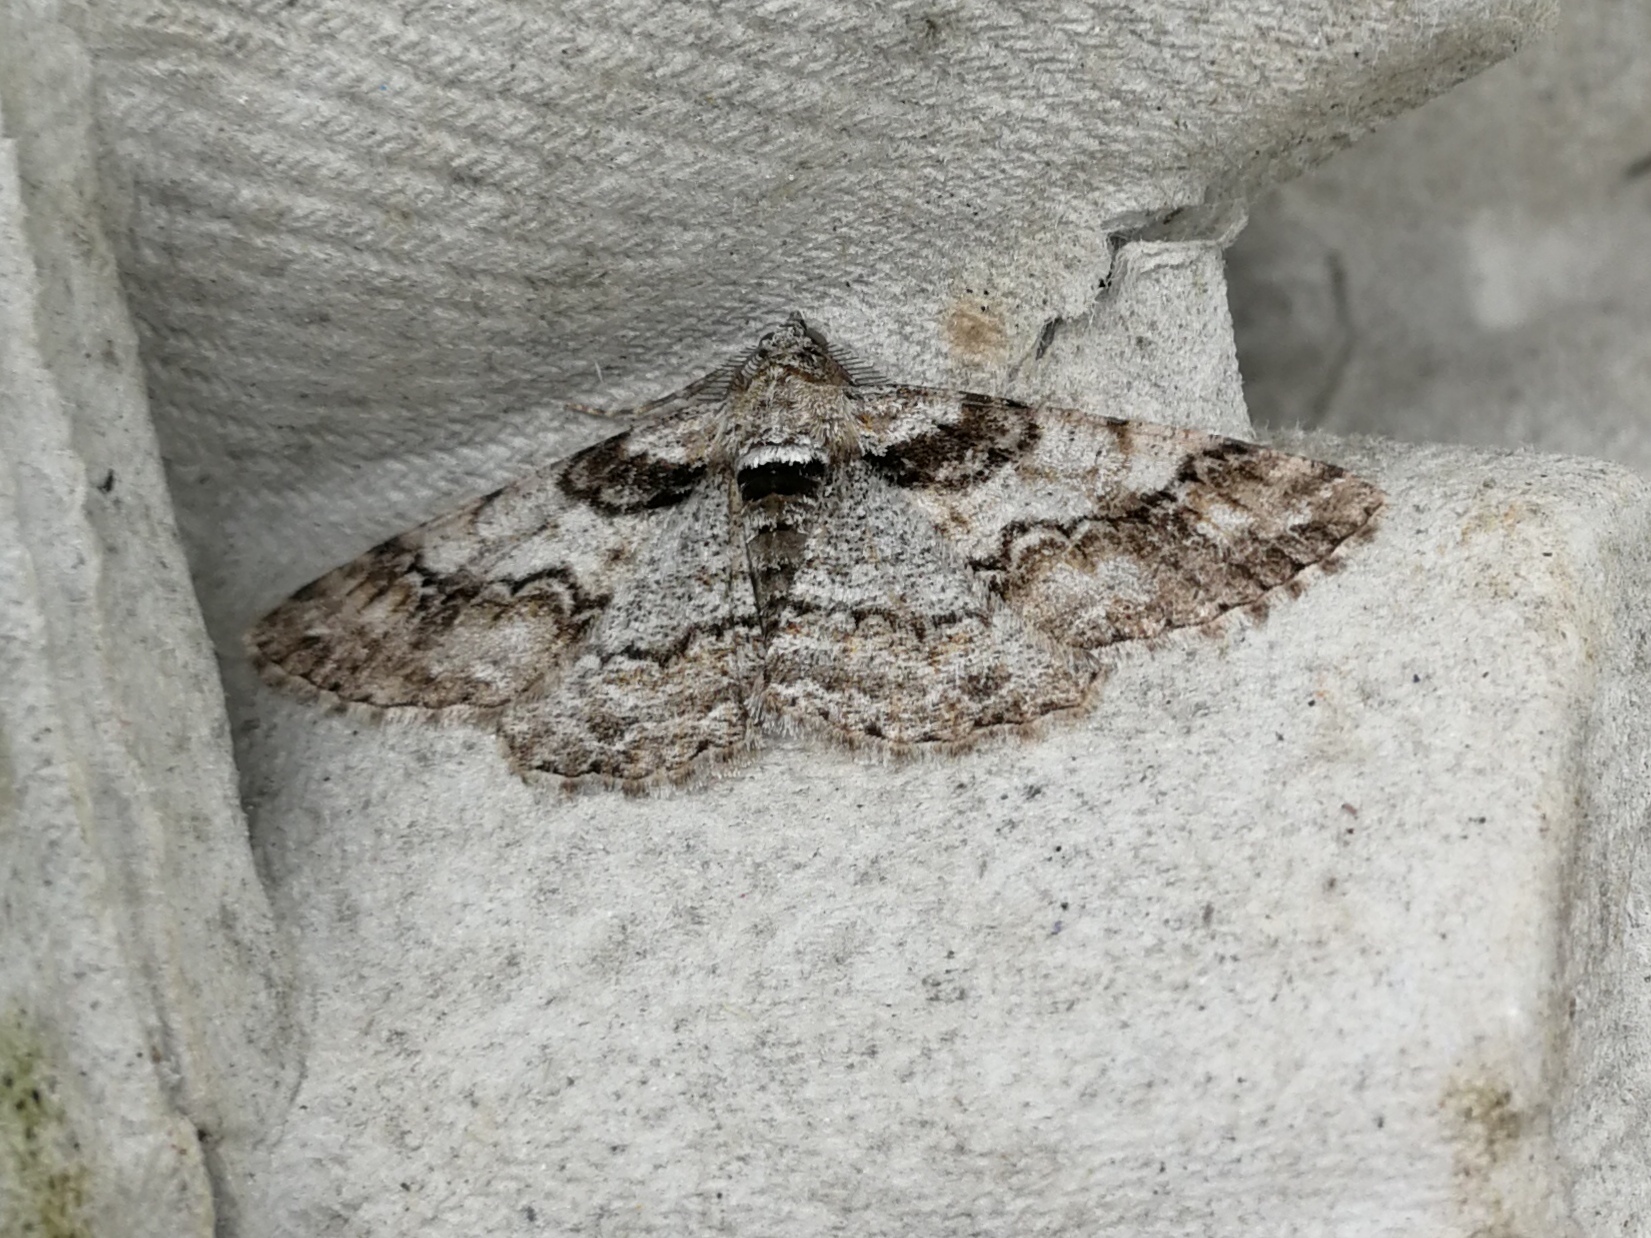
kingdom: Animalia
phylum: Arthropoda
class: Insecta
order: Lepidoptera
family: Geometridae
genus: Cleora
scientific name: Cleora cinctaria
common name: Ringed carpet
